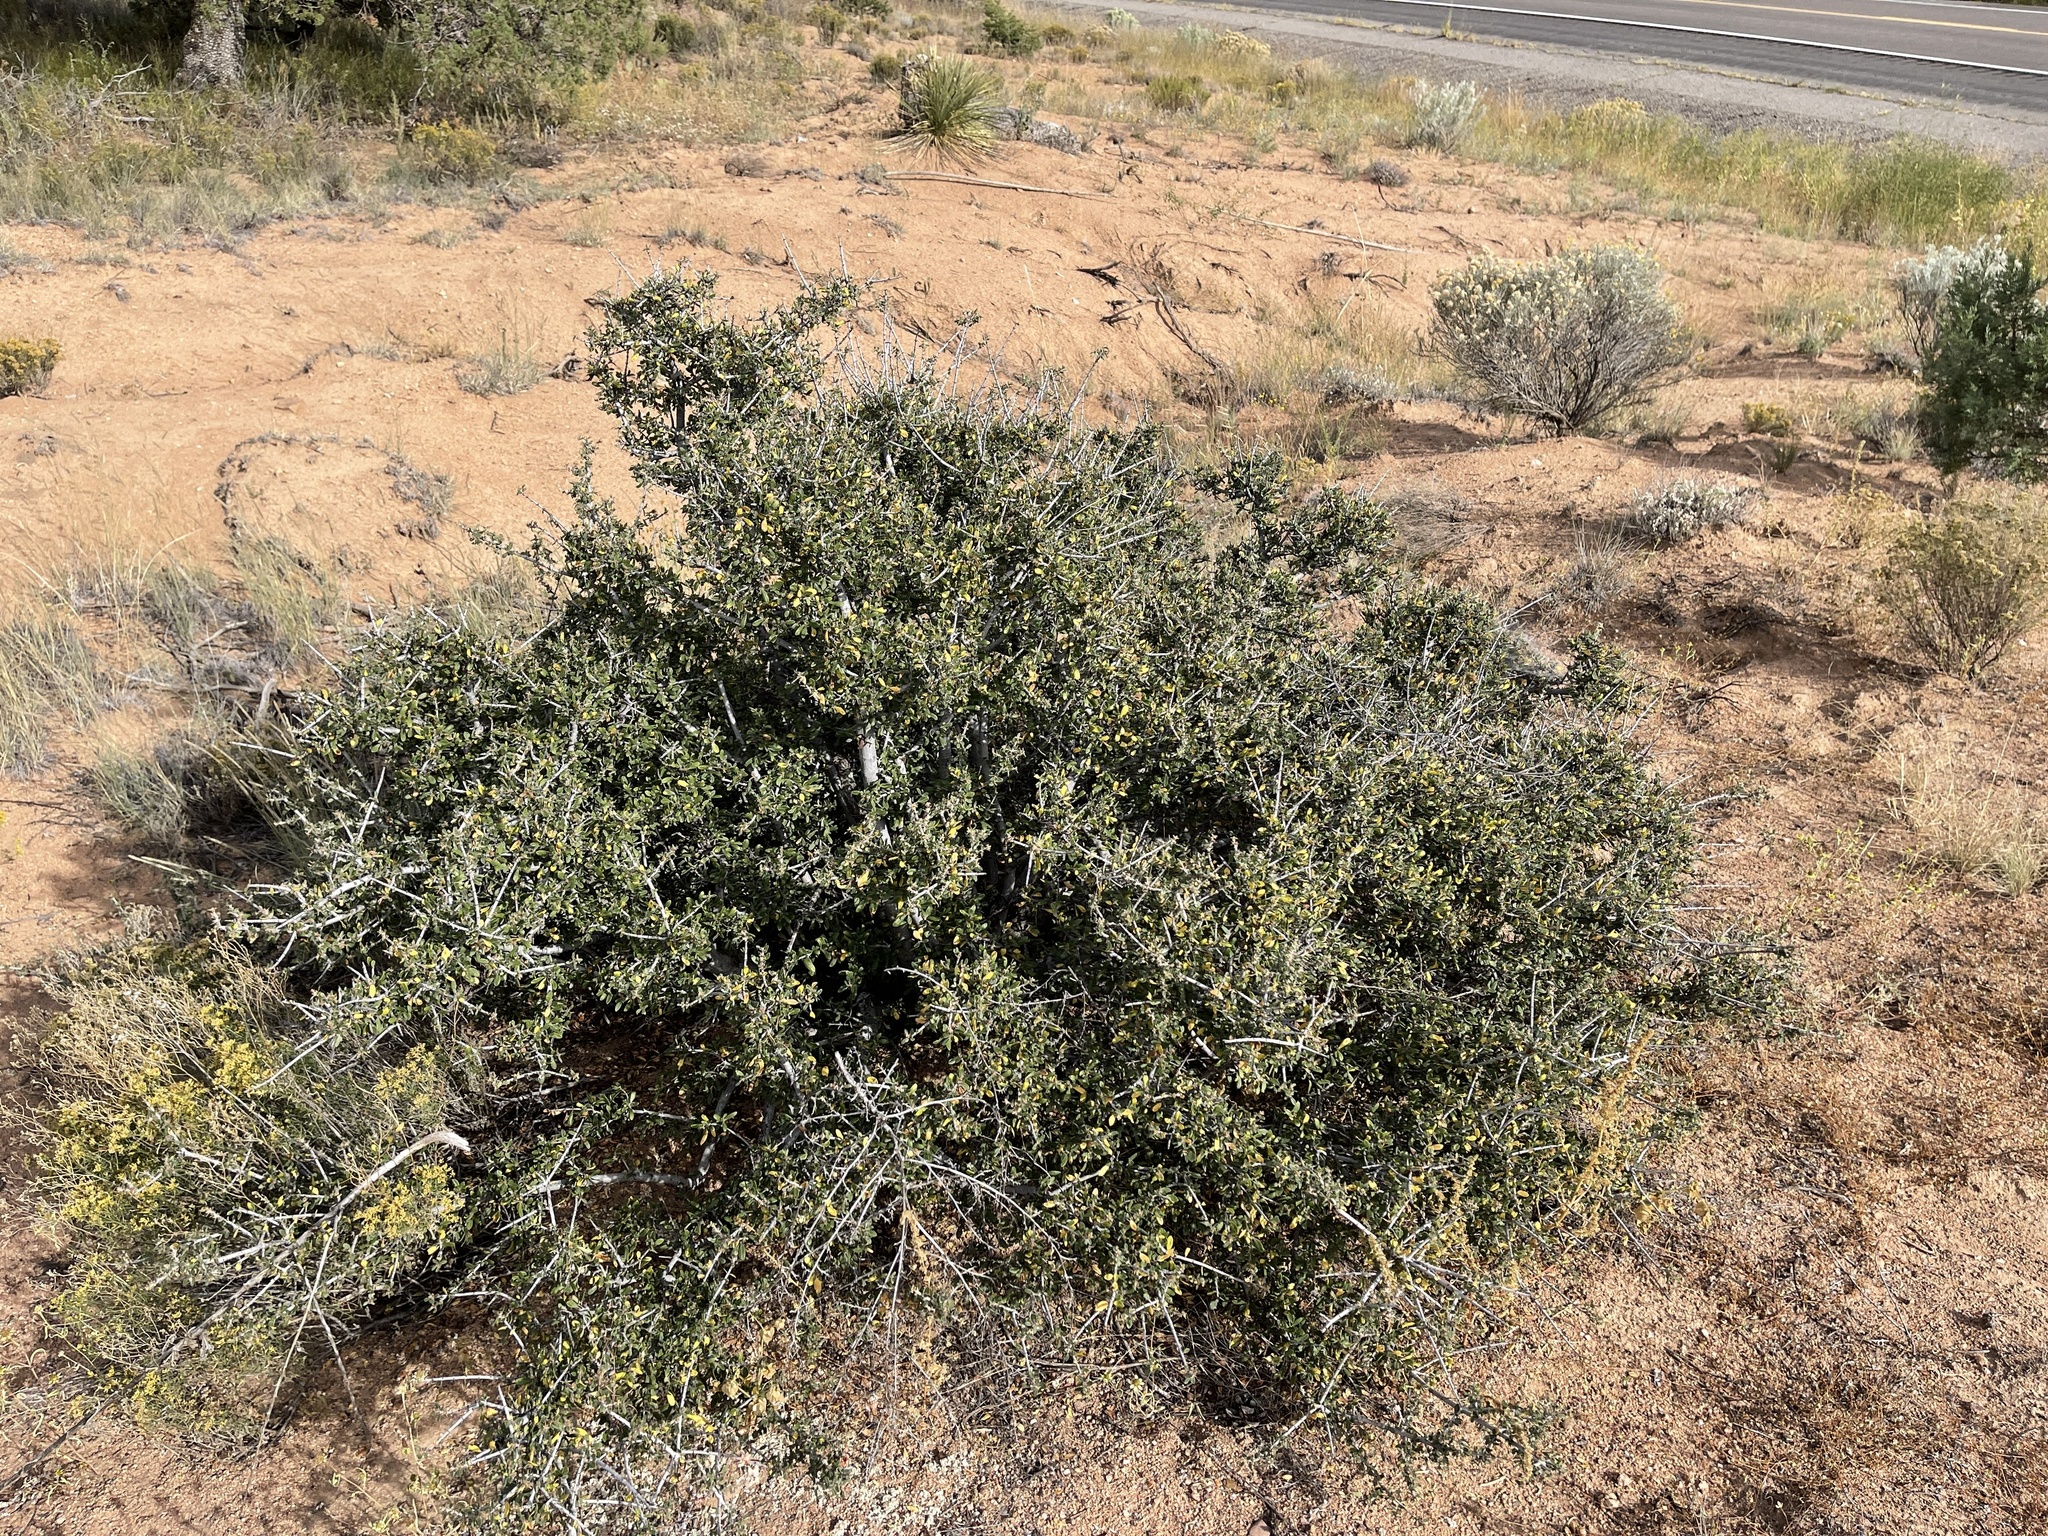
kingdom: Plantae
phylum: Tracheophyta
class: Magnoliopsida
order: Rosales
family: Rhamnaceae
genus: Sarcomphalus
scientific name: Sarcomphalus obtusifolius
